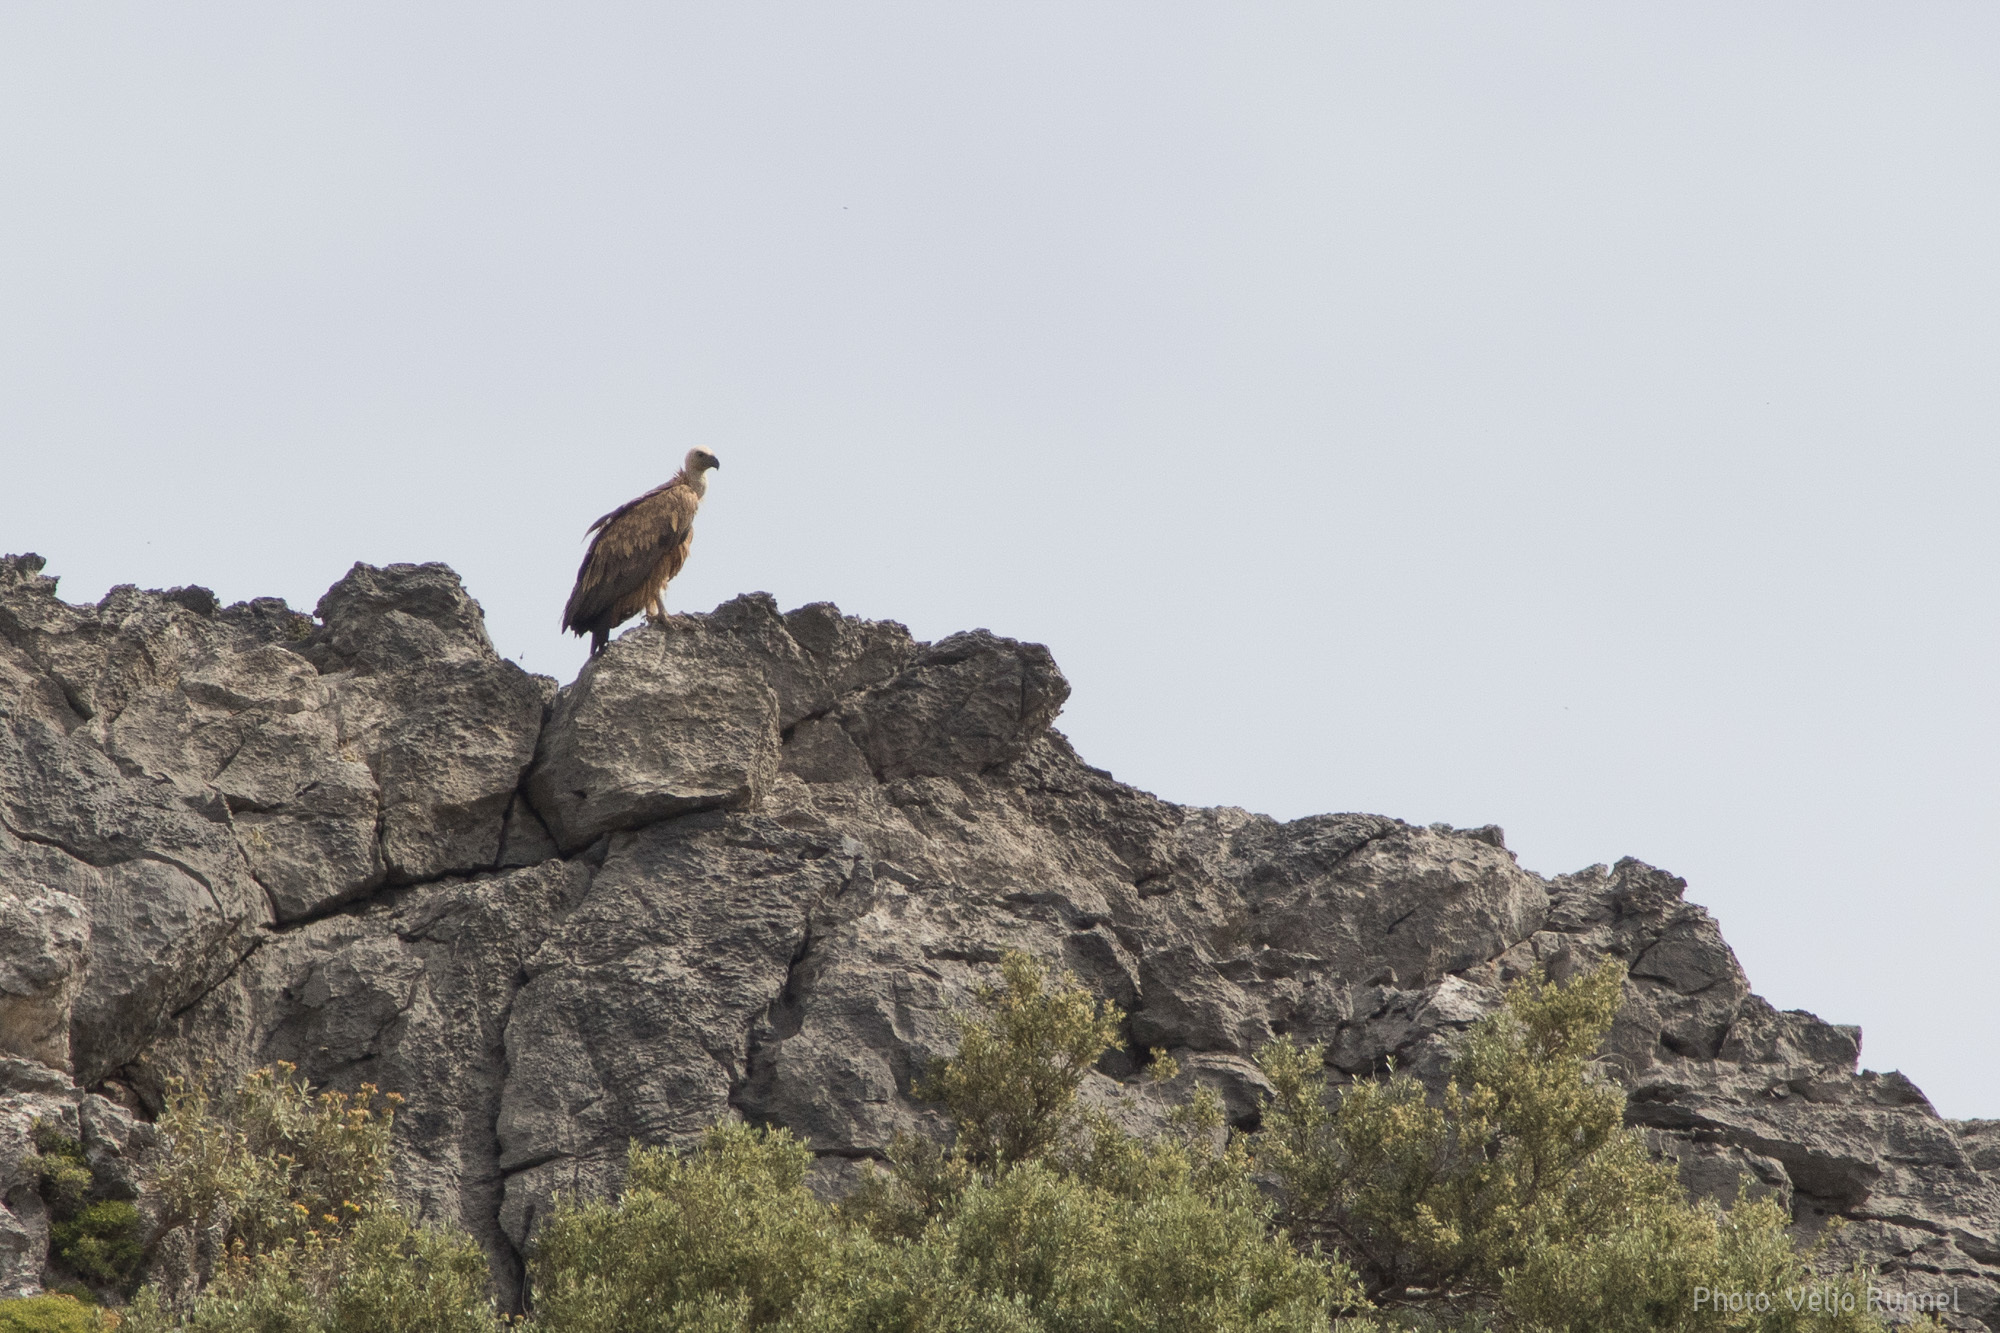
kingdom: Animalia
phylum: Chordata
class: Aves
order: Accipitriformes
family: Accipitridae
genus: Gyps
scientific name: Gyps fulvus
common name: Griffon vulture
